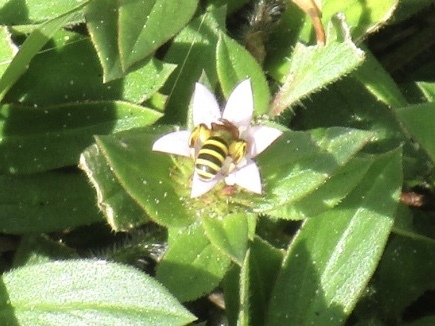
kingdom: Animalia
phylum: Arthropoda
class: Insecta
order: Hymenoptera
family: Halictidae
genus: Agapostemon
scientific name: Agapostemon splendens
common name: Brown-winged striped sweat bee
